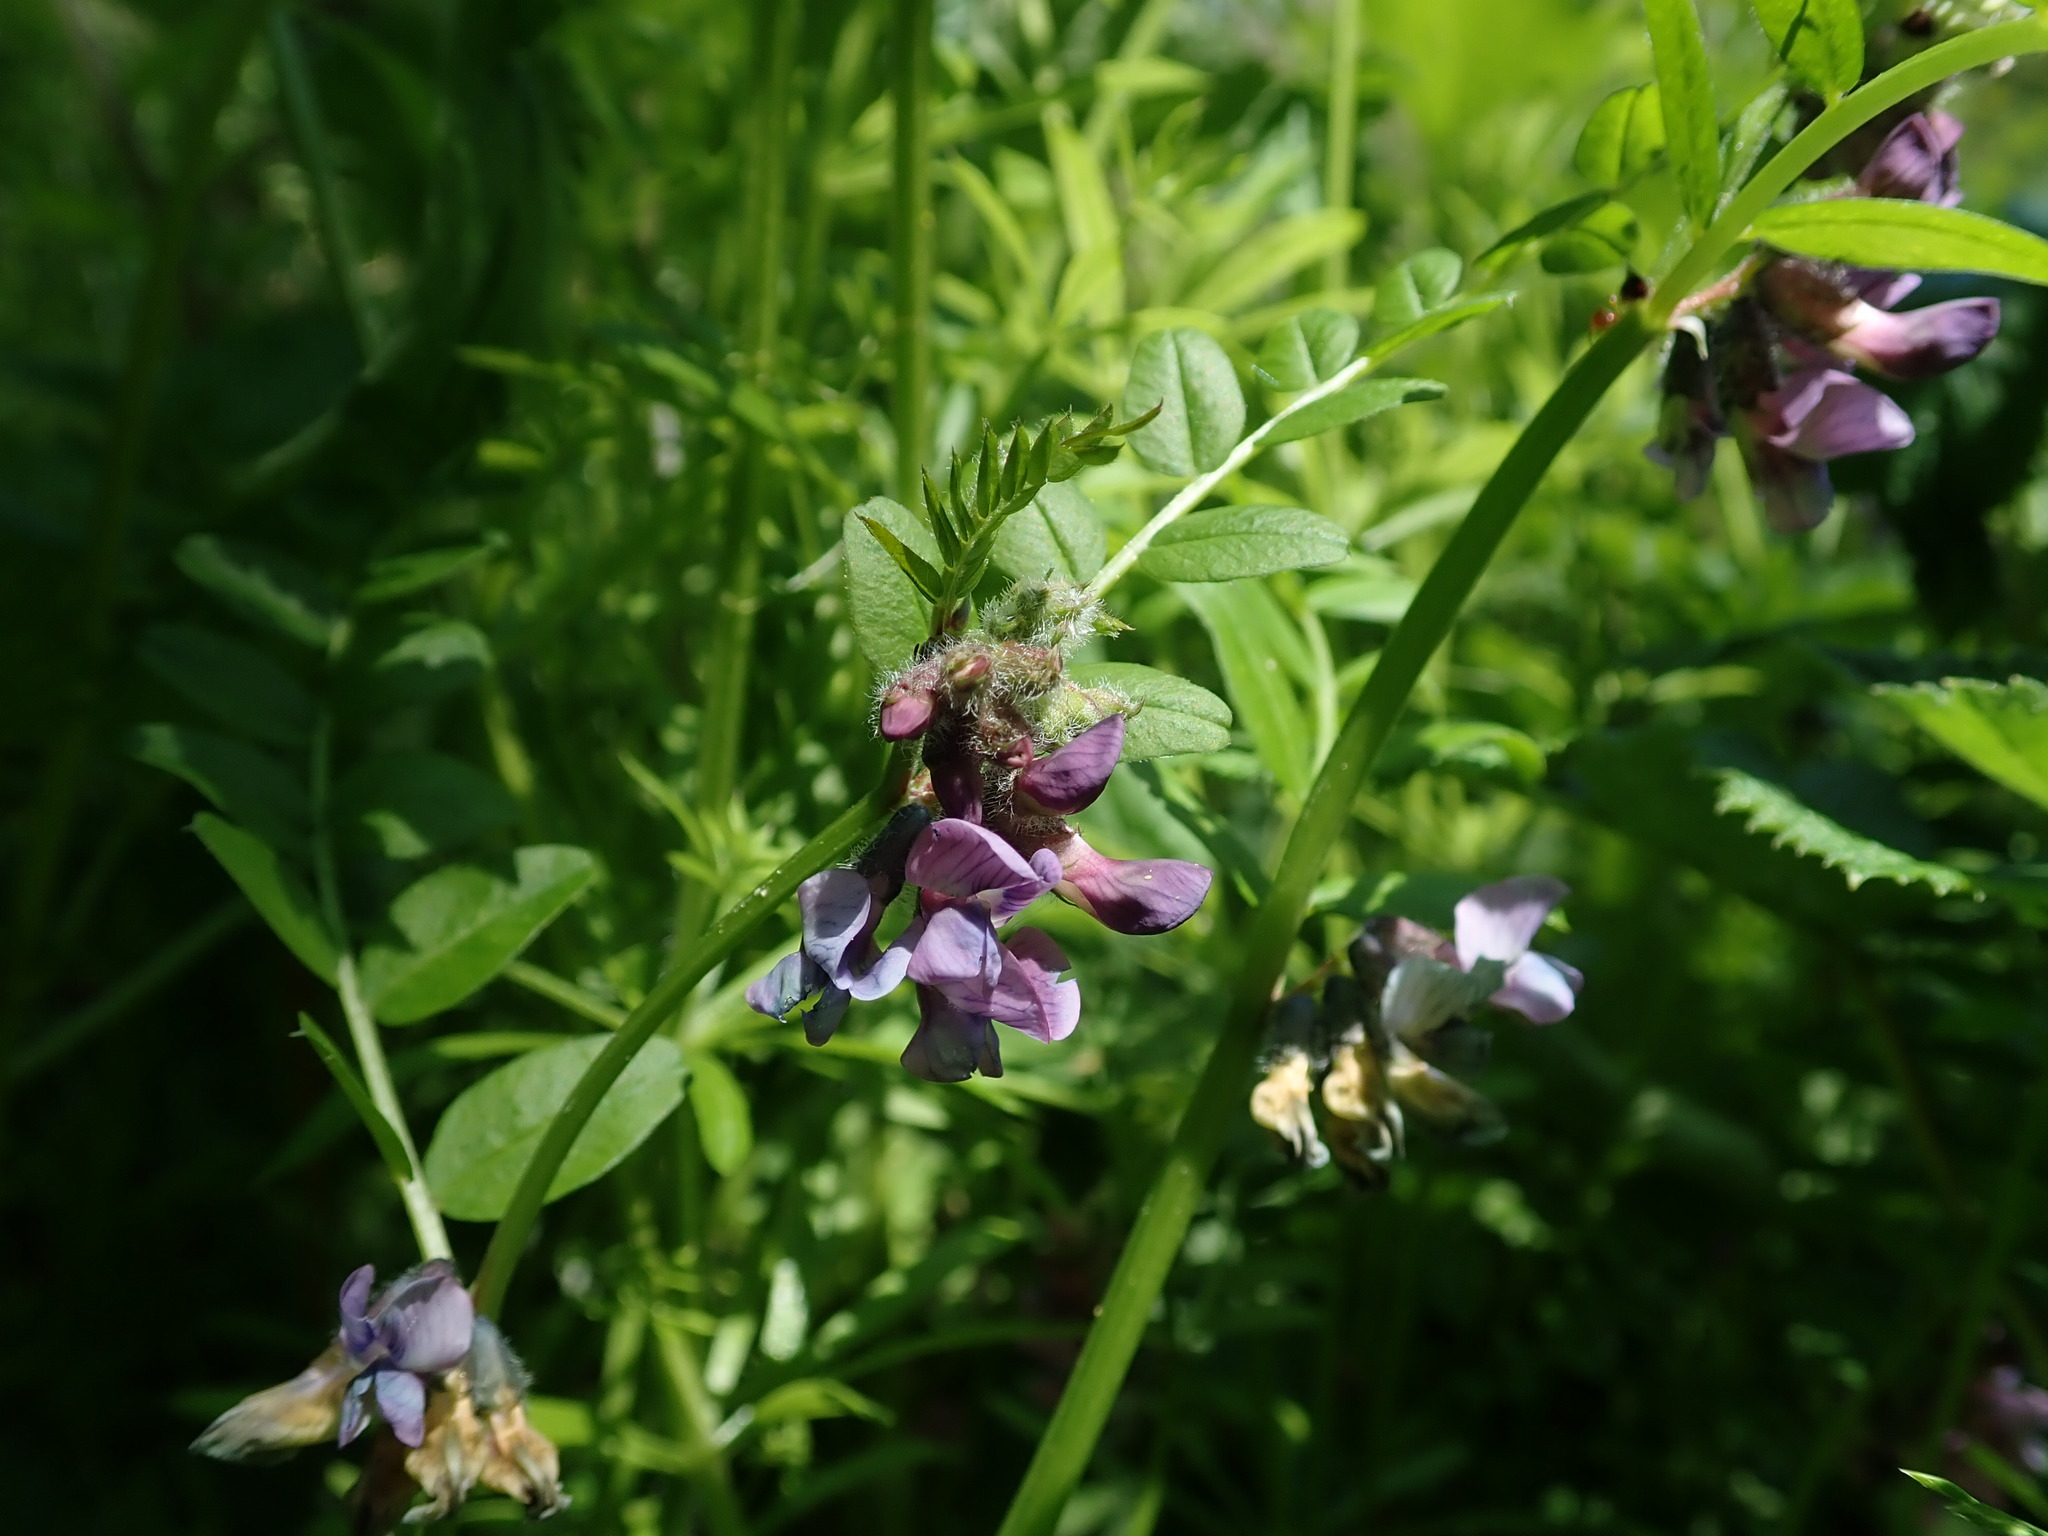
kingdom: Plantae
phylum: Tracheophyta
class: Magnoliopsida
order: Fabales
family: Fabaceae
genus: Vicia
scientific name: Vicia sepium
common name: Bush vetch
